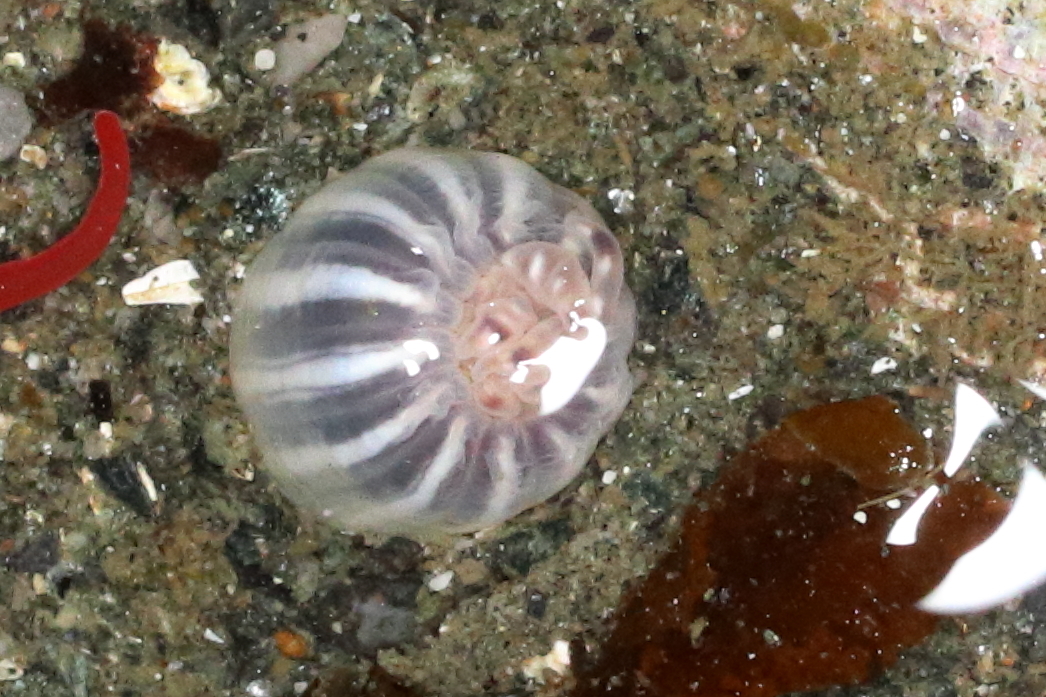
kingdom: Animalia
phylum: Cnidaria
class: Anthozoa
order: Actiniaria
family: Peachiidae
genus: Peachia
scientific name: Peachia quinquecapitata
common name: Twelve-tentacled parasitic anemone
